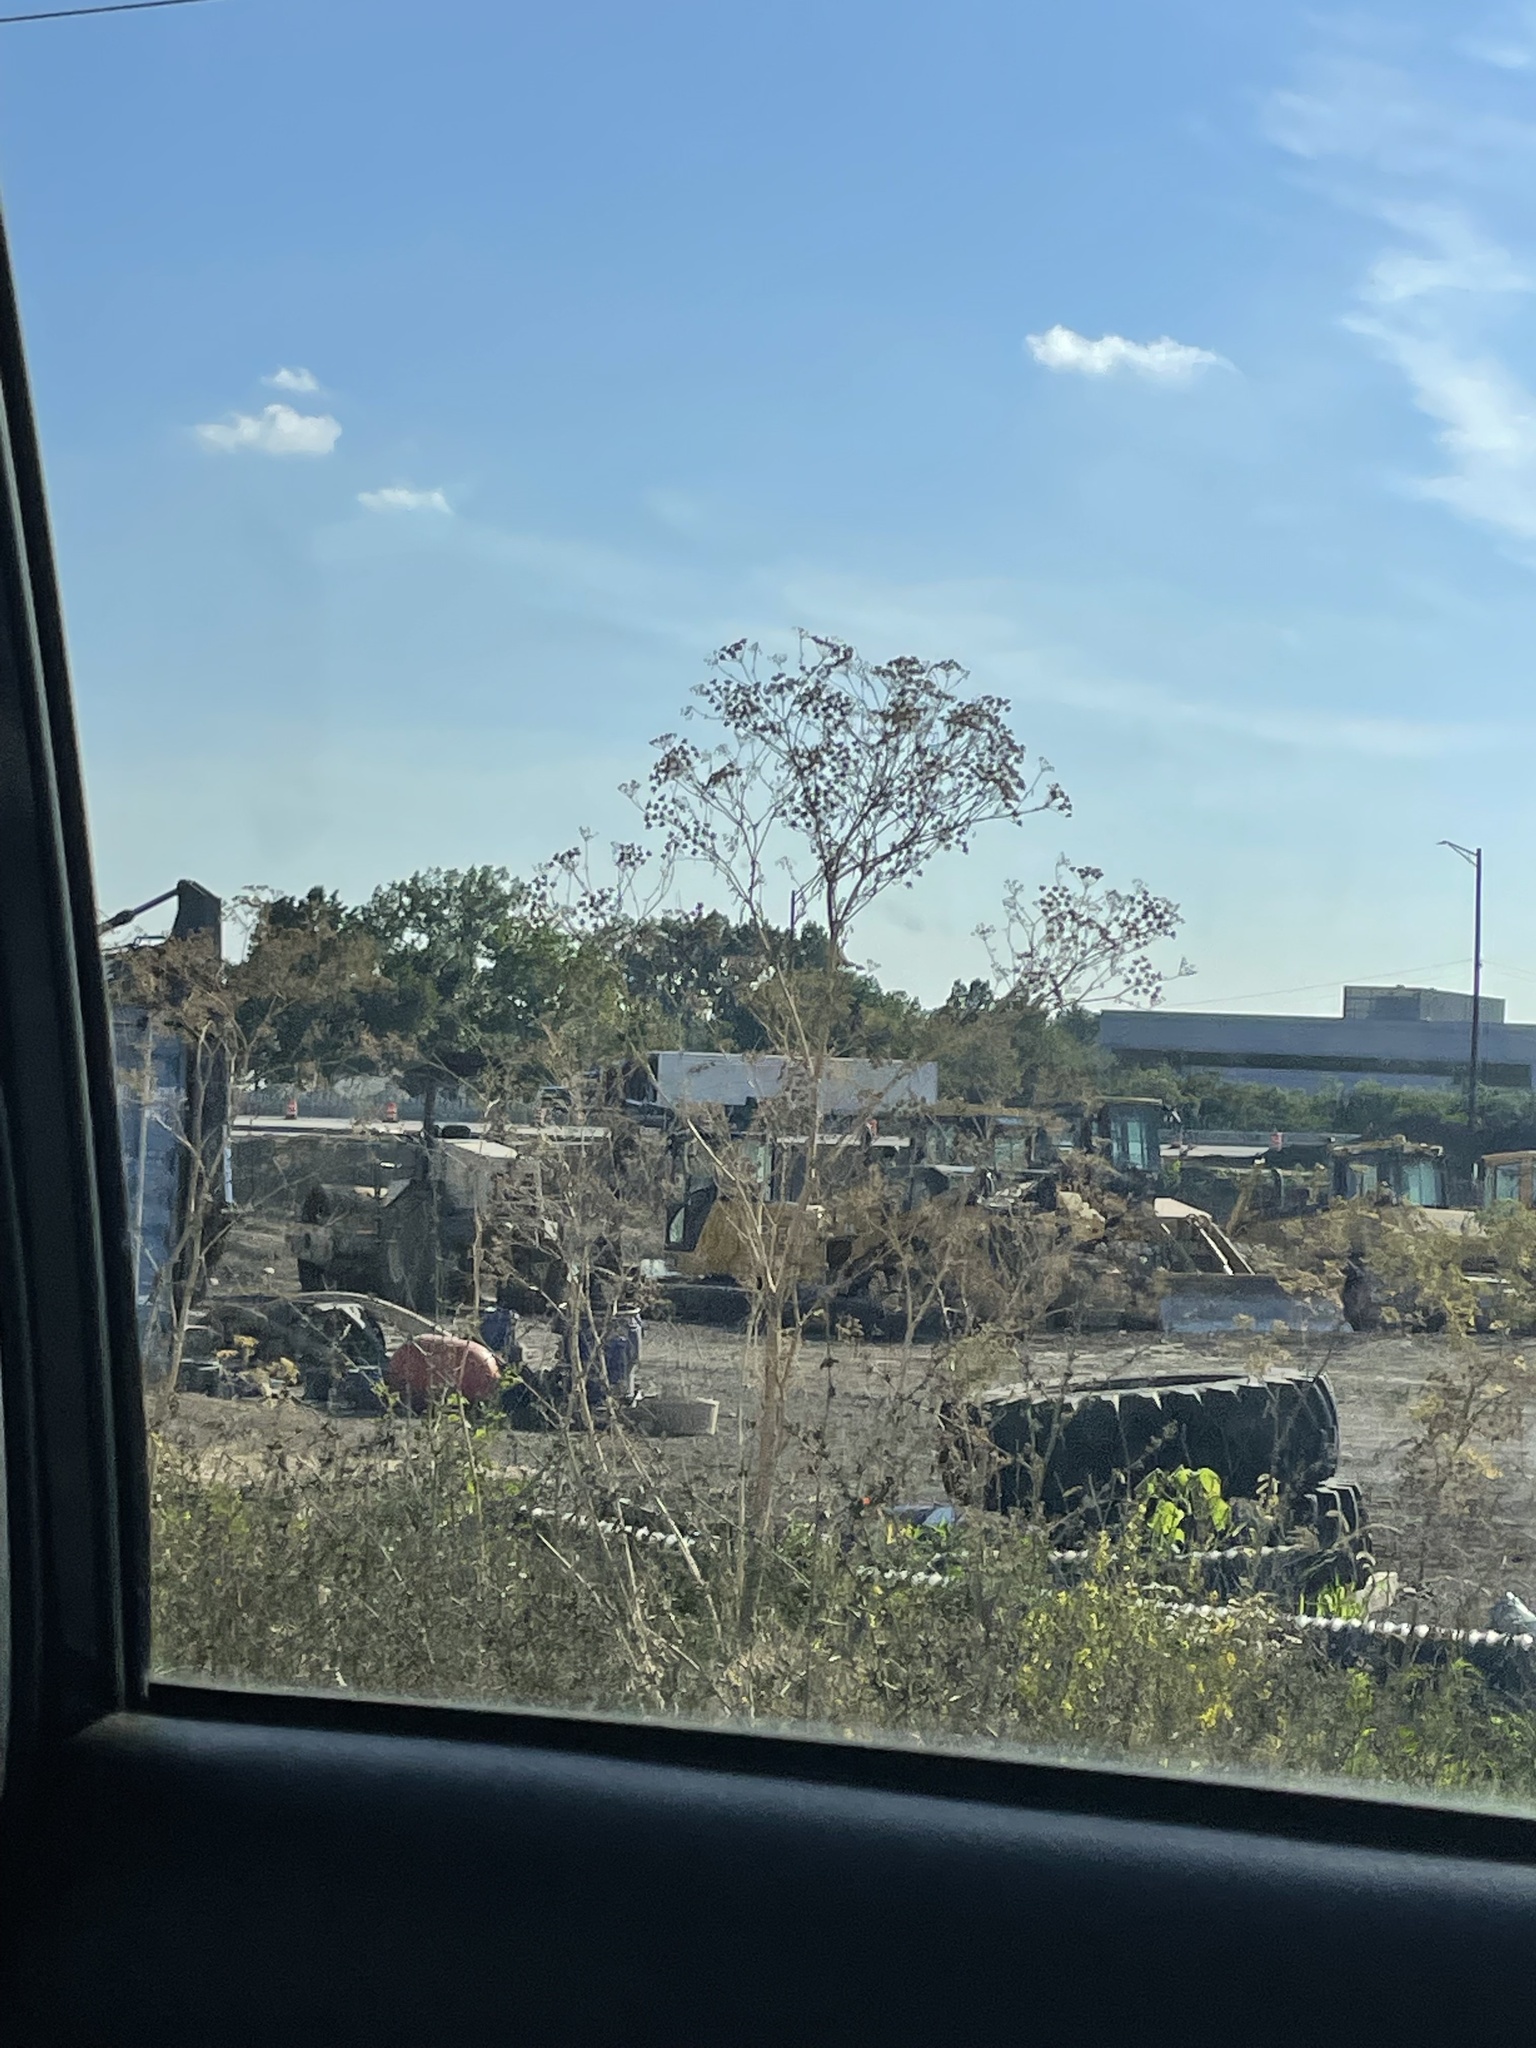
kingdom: Plantae
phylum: Tracheophyta
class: Magnoliopsida
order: Apiales
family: Apiaceae
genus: Conium
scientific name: Conium maculatum
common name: Hemlock
